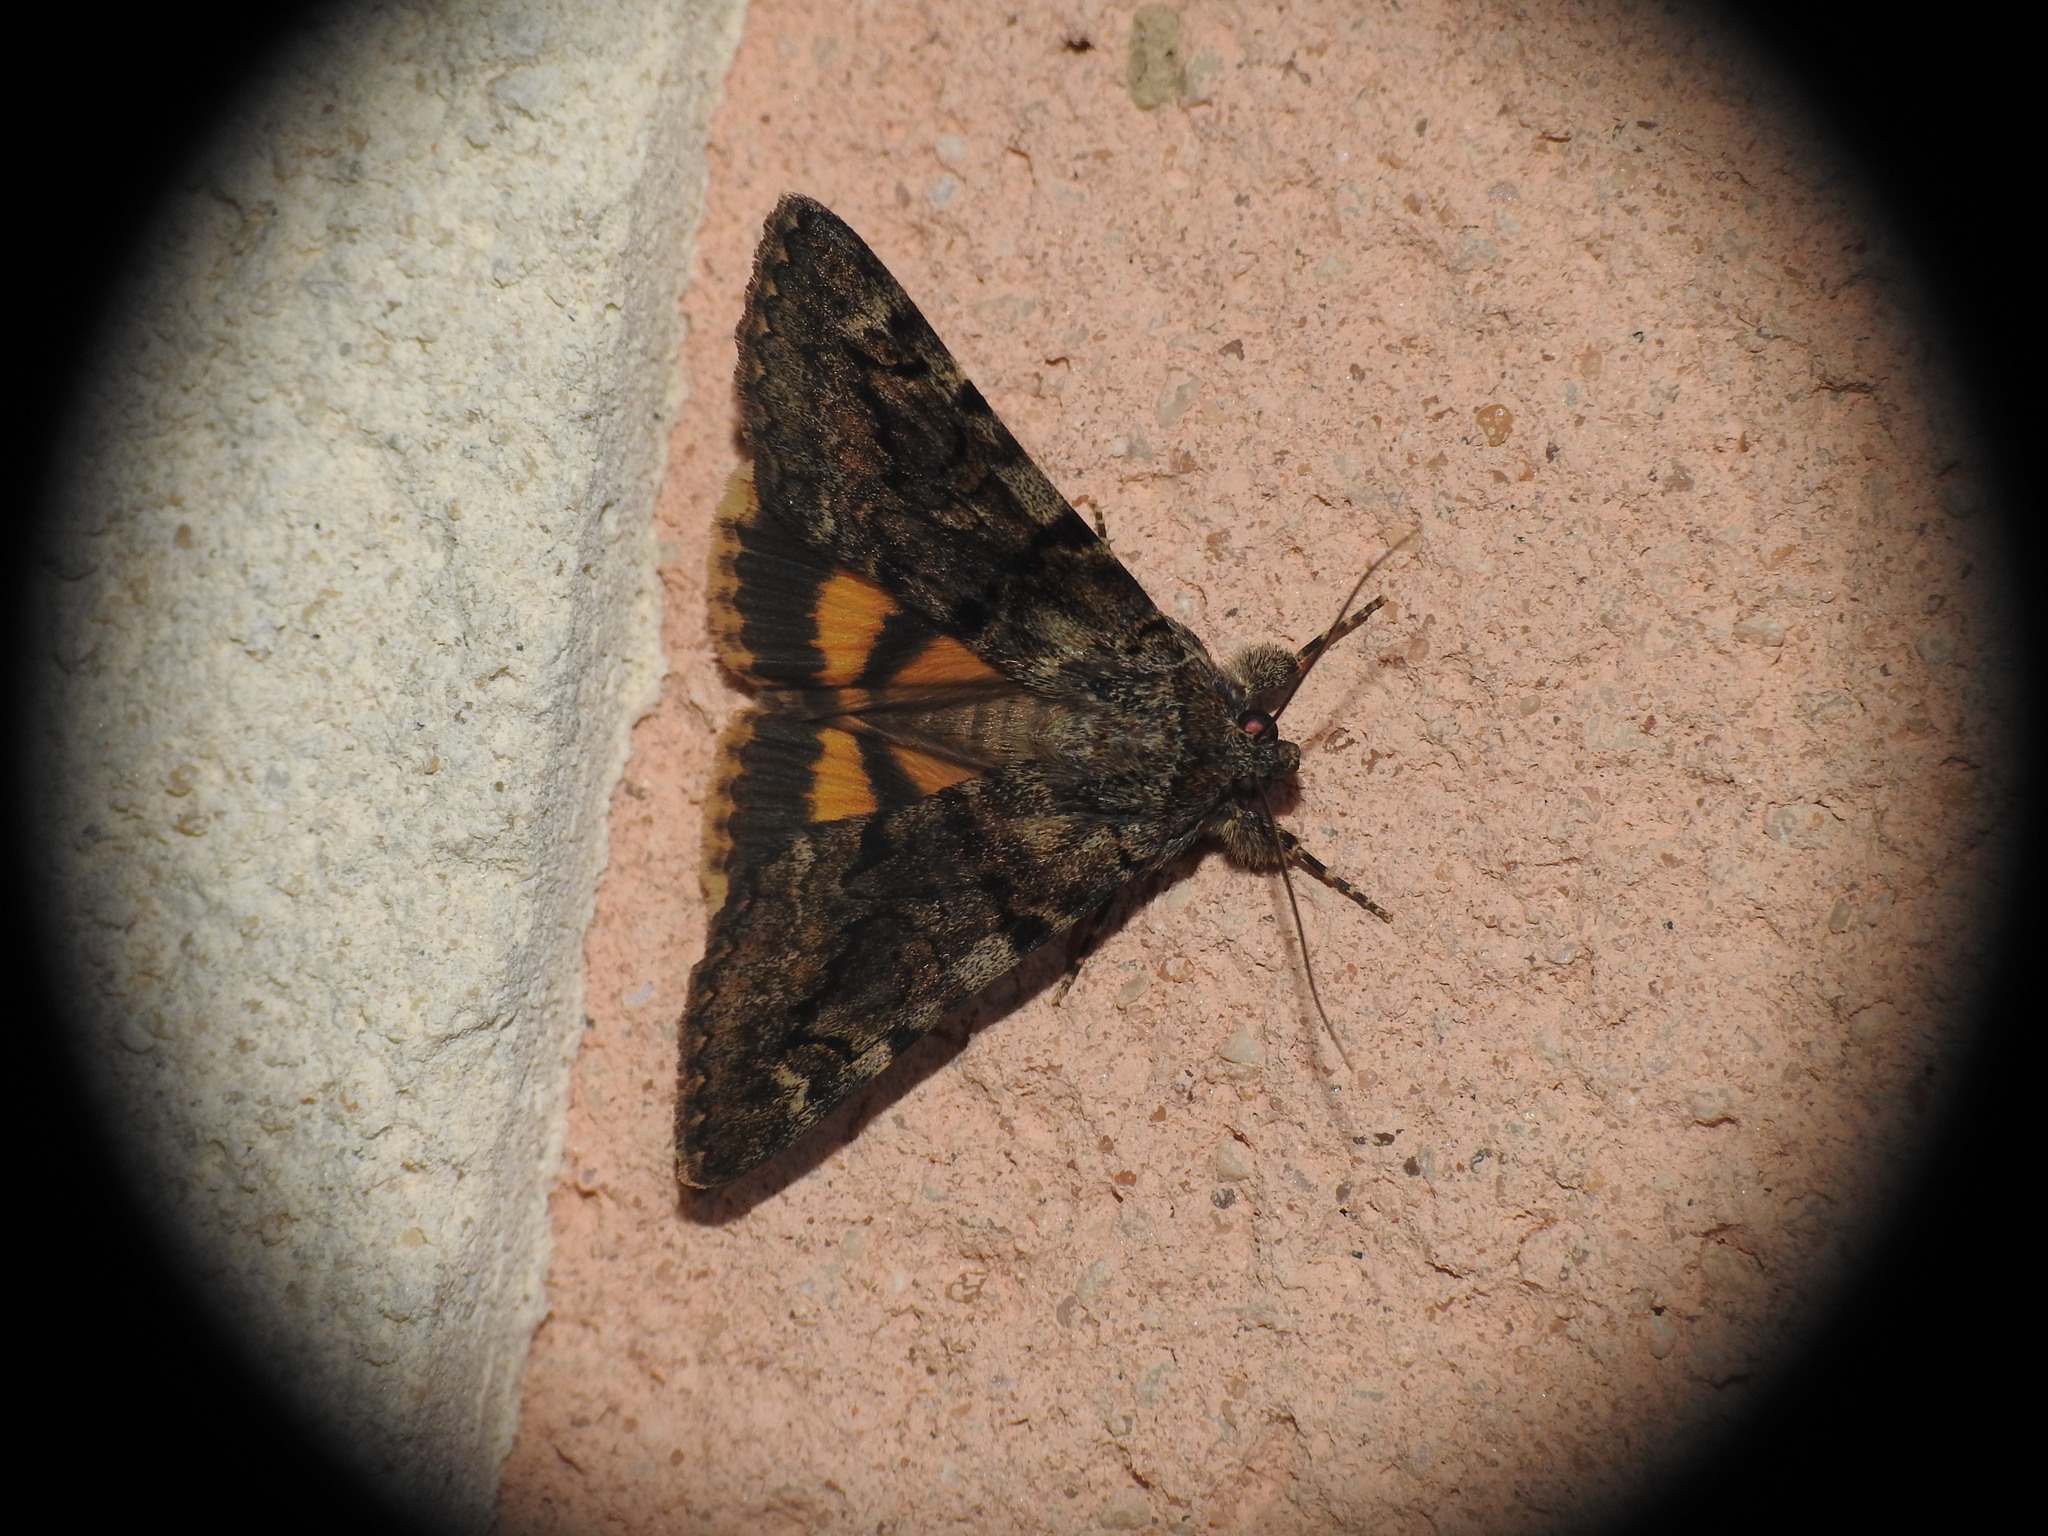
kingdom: Animalia
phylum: Arthropoda
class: Insecta
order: Lepidoptera
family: Erebidae
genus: Catocala
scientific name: Catocala nymphagoga
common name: Oak yellow underwing
